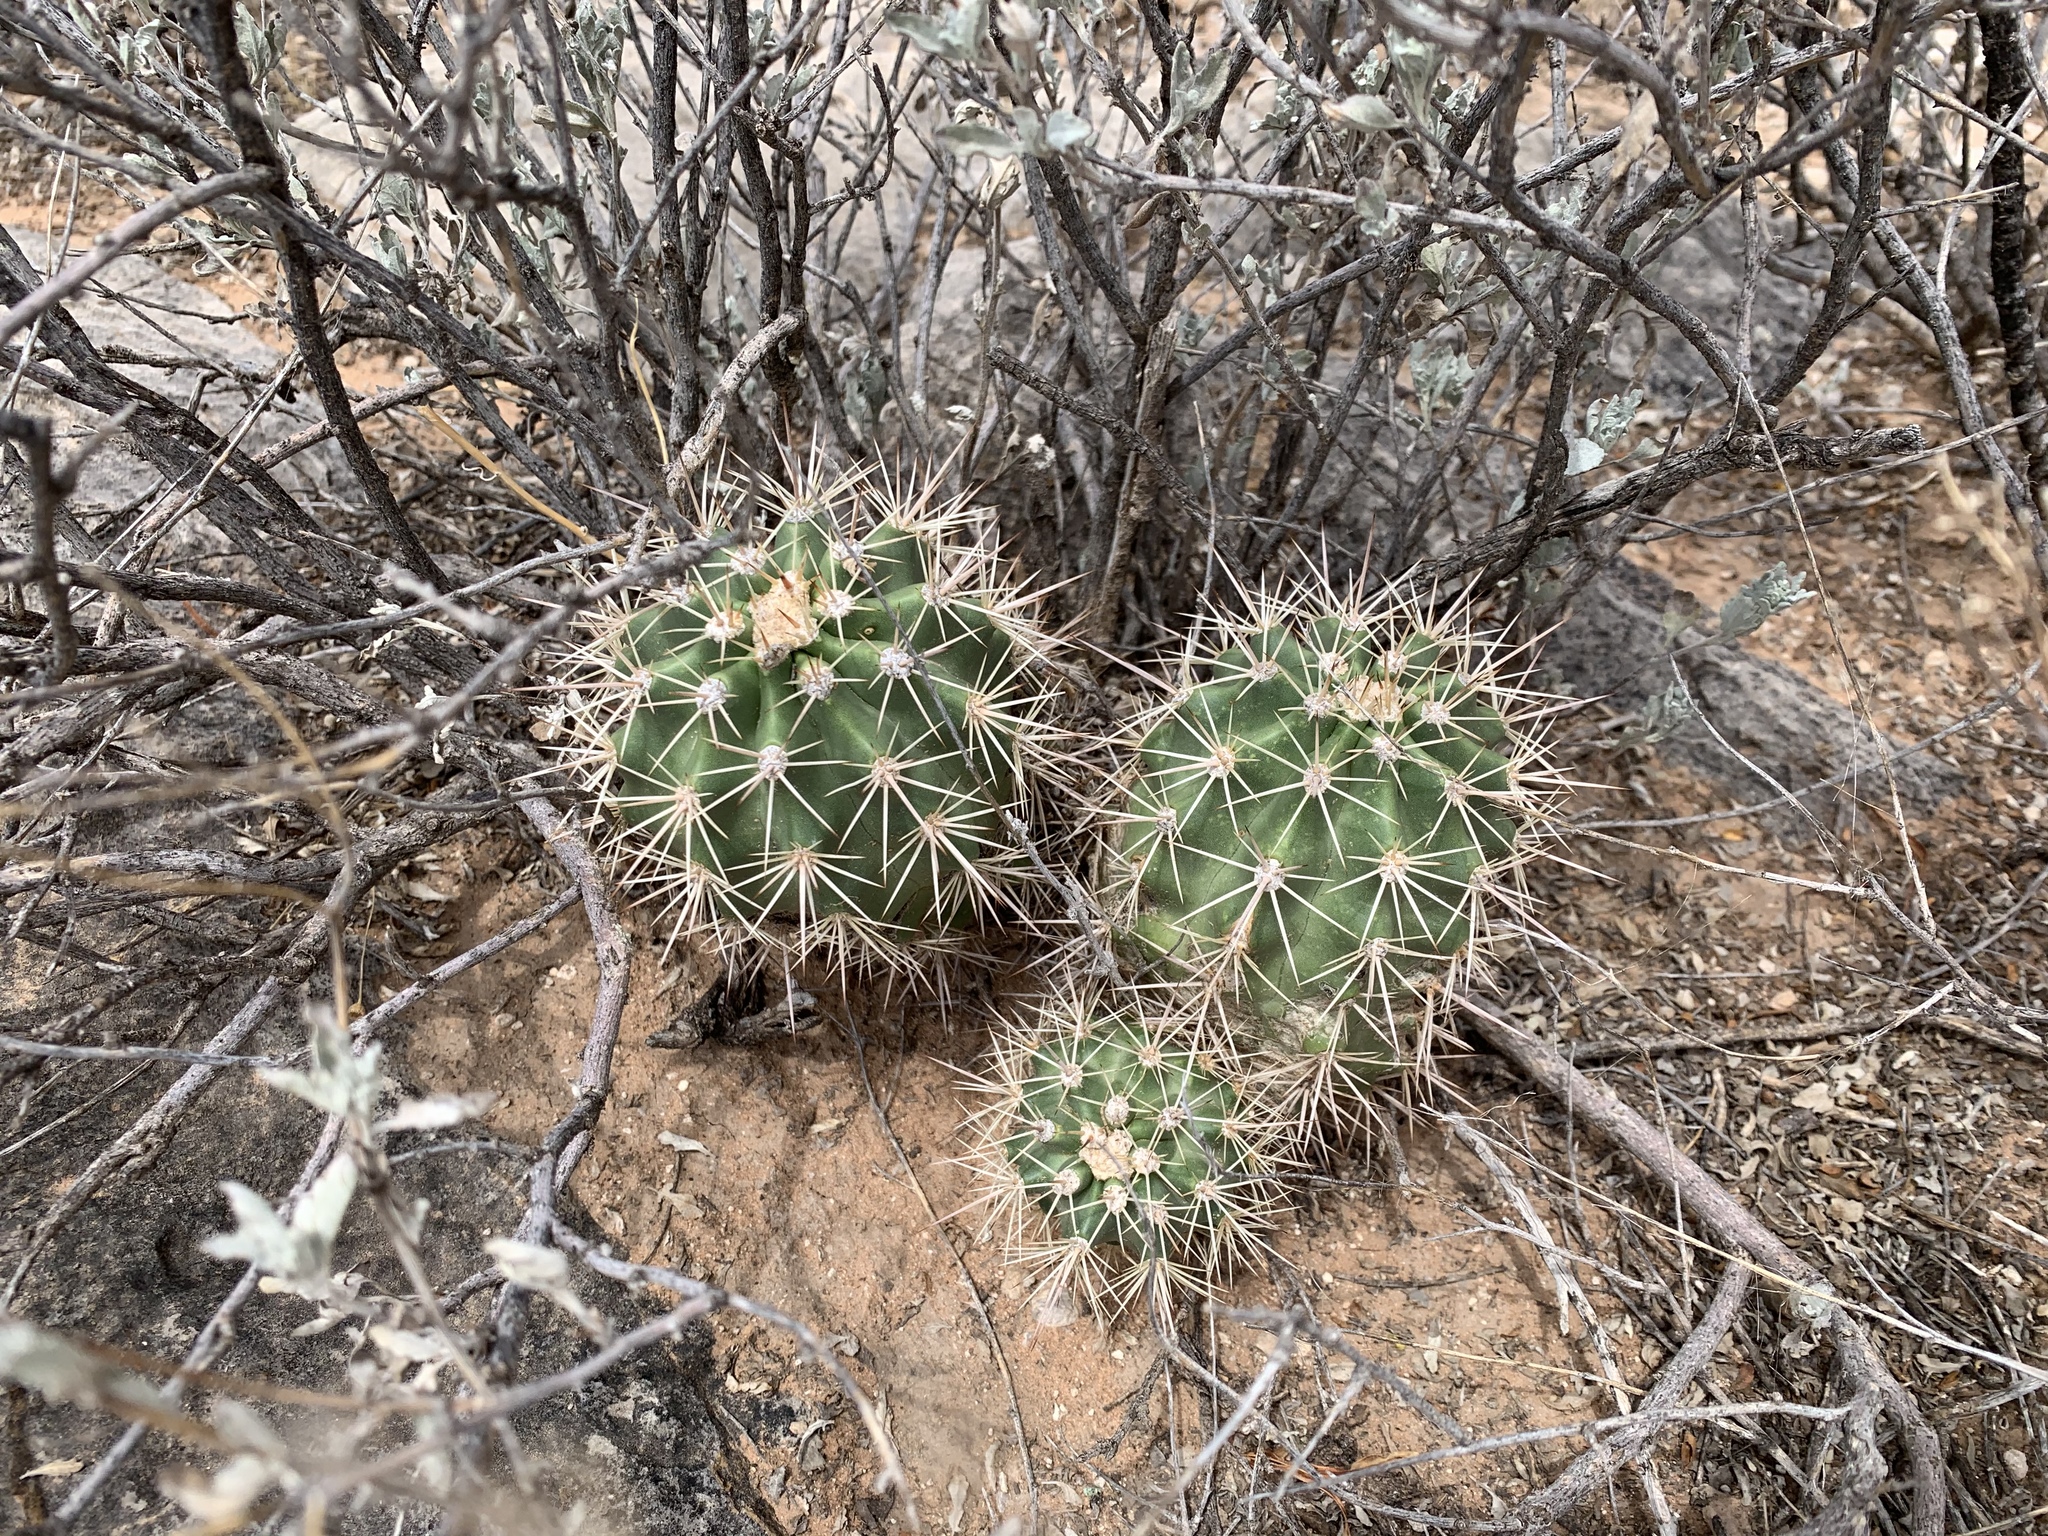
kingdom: Plantae
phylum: Tracheophyta
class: Magnoliopsida
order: Caryophyllales
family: Cactaceae
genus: Echinocereus
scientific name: Echinocereus coccineus
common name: Scarlet hedgehog cactus
